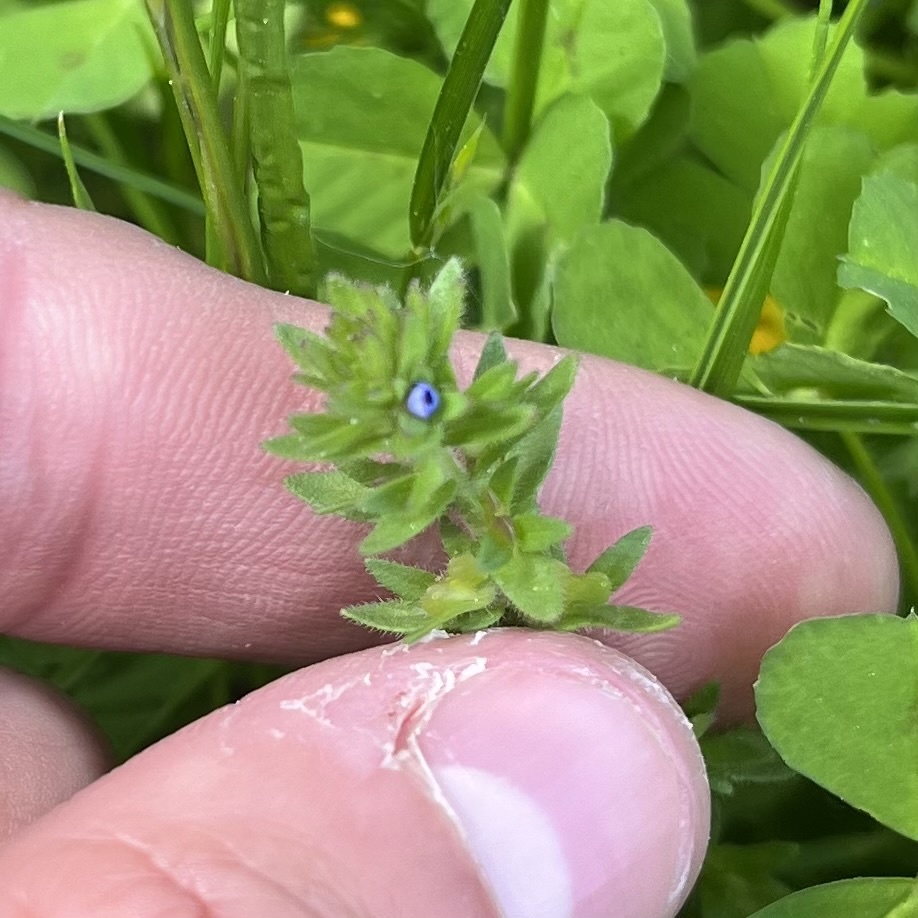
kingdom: Plantae
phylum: Tracheophyta
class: Magnoliopsida
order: Lamiales
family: Plantaginaceae
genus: Veronica
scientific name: Veronica arvensis
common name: Corn speedwell
